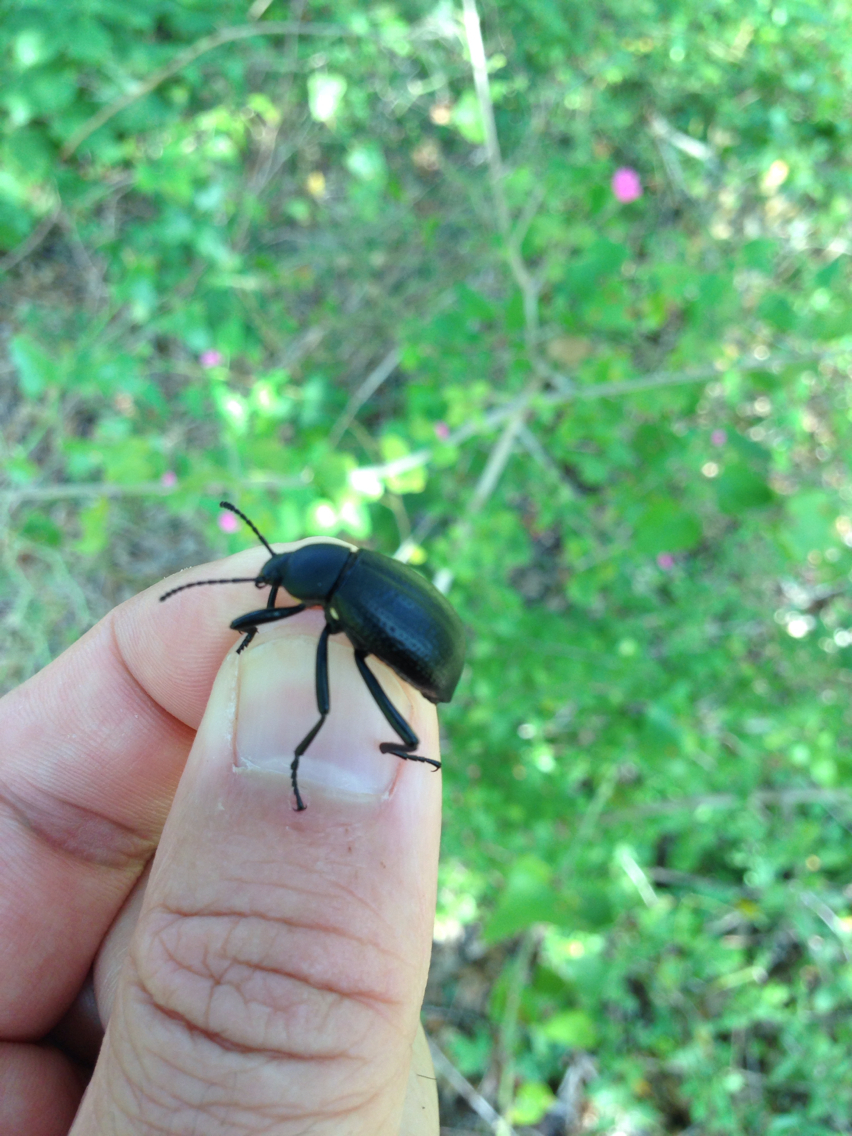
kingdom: Animalia
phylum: Arthropoda
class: Insecta
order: Coleoptera
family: Tenebrionidae
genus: Eleodes
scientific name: Eleodes goryi
